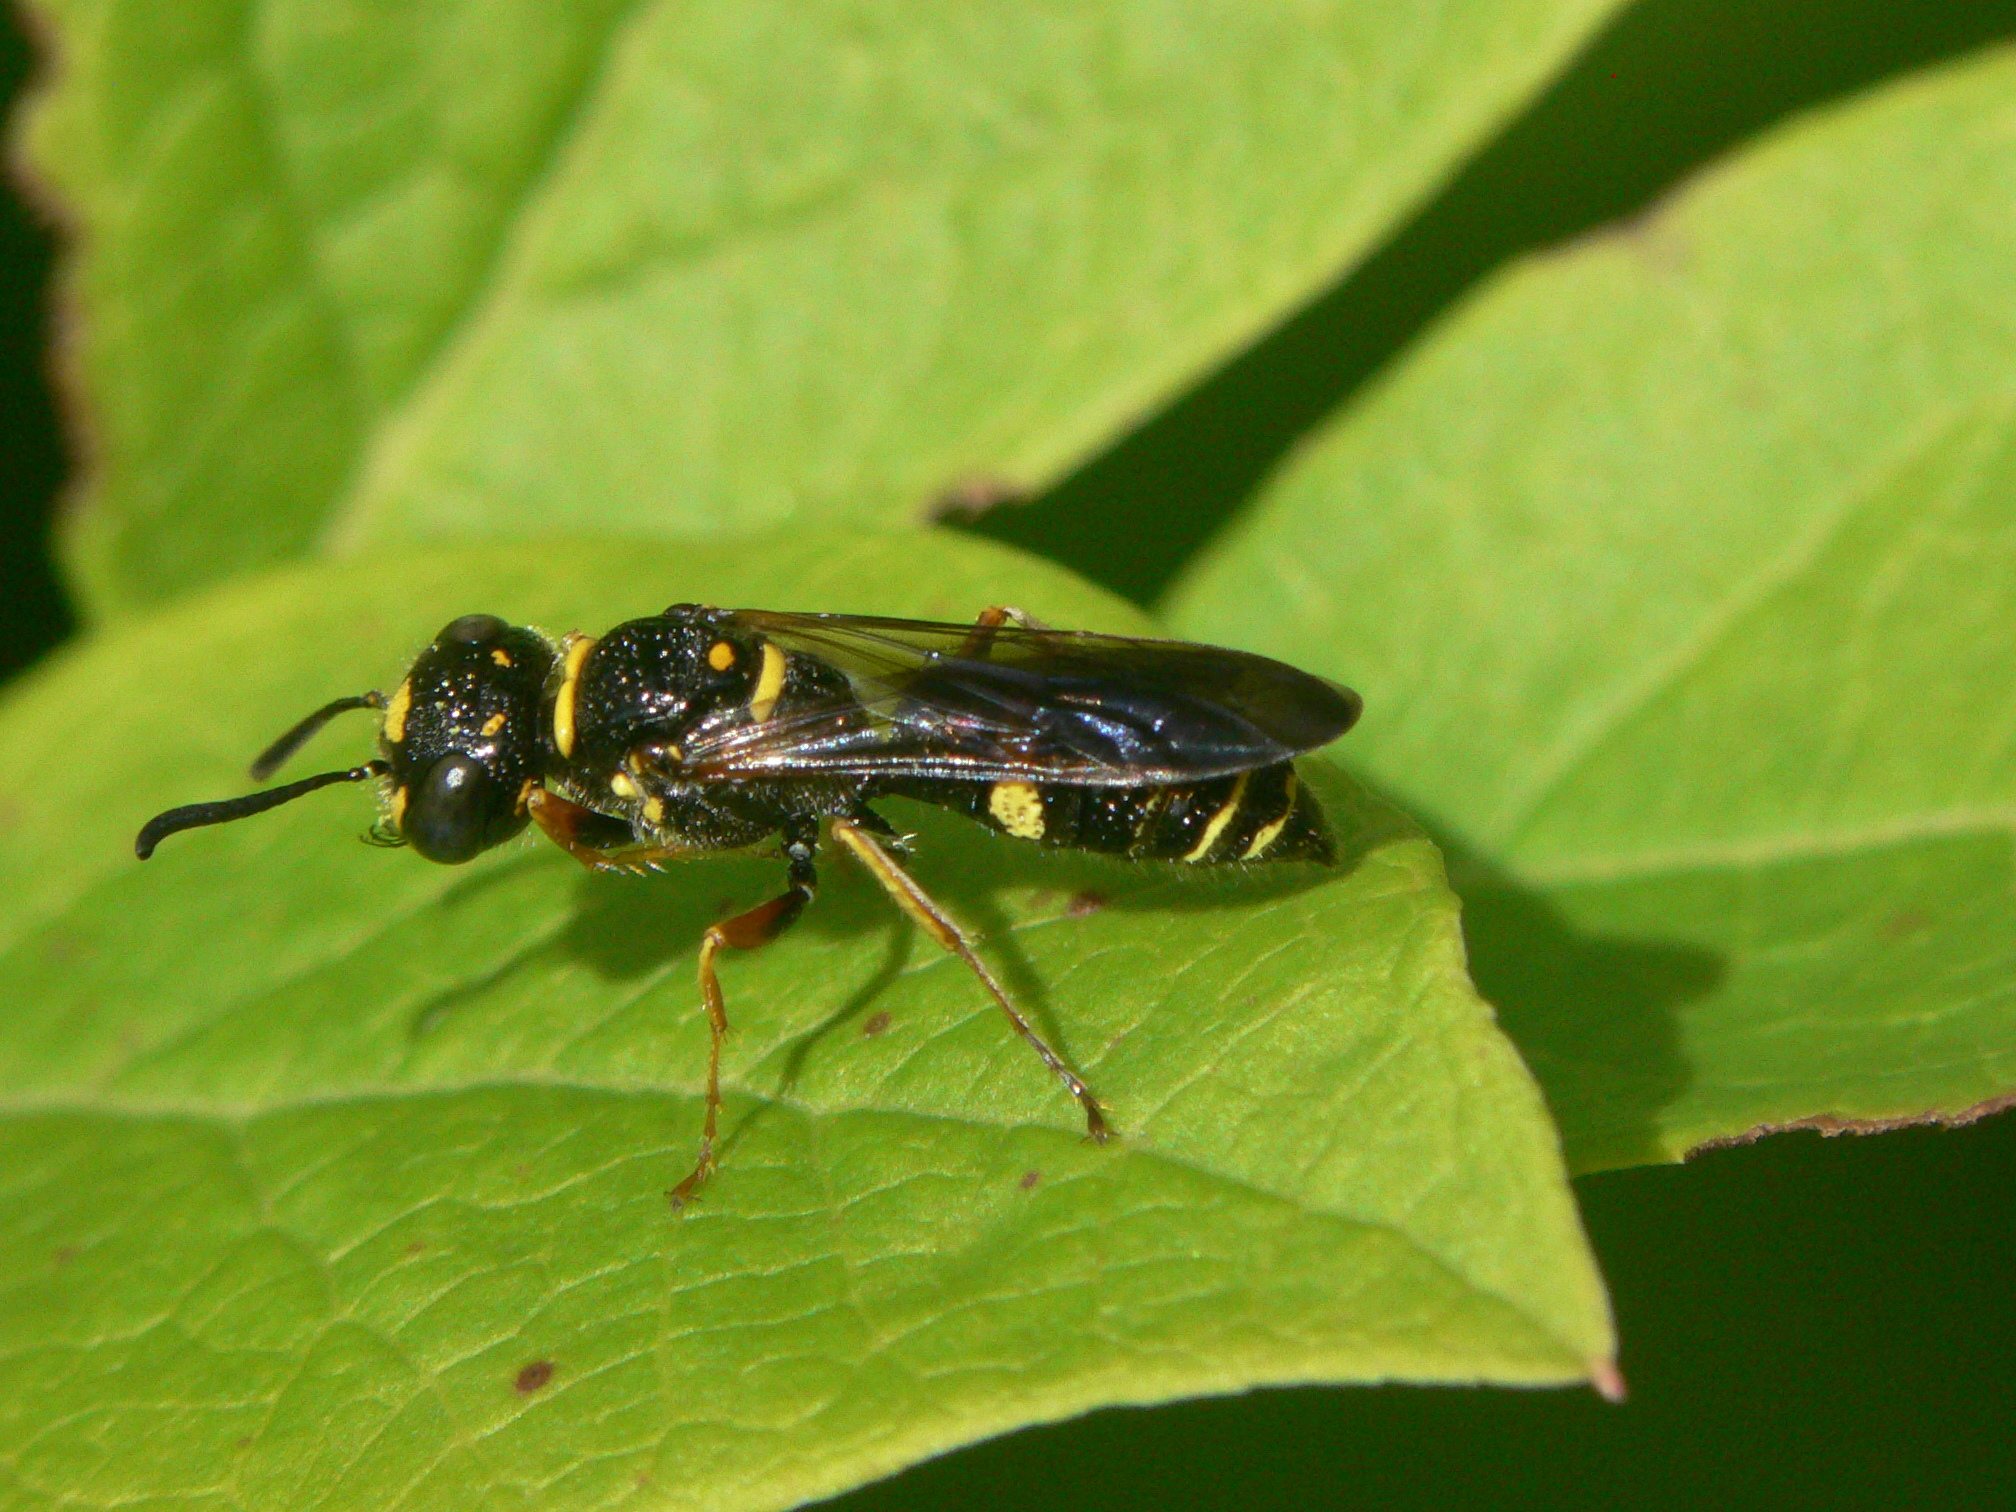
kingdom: Animalia
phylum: Arthropoda
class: Insecta
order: Hymenoptera
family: Crabronidae
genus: Philanthus
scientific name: Philanthus gibbosus
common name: Humped beewolf
